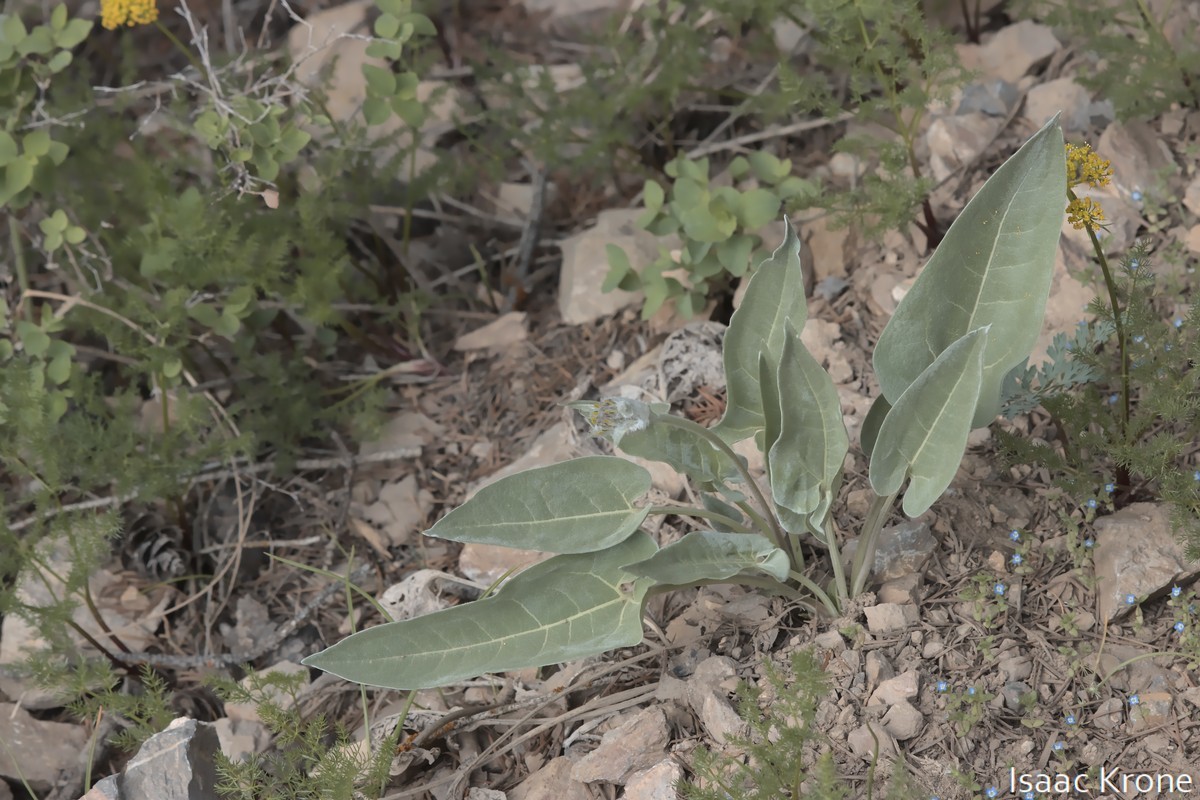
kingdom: Plantae
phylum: Tracheophyta
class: Magnoliopsida
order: Asterales
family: Asteraceae
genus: Wyethia
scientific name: Wyethia sagittata
